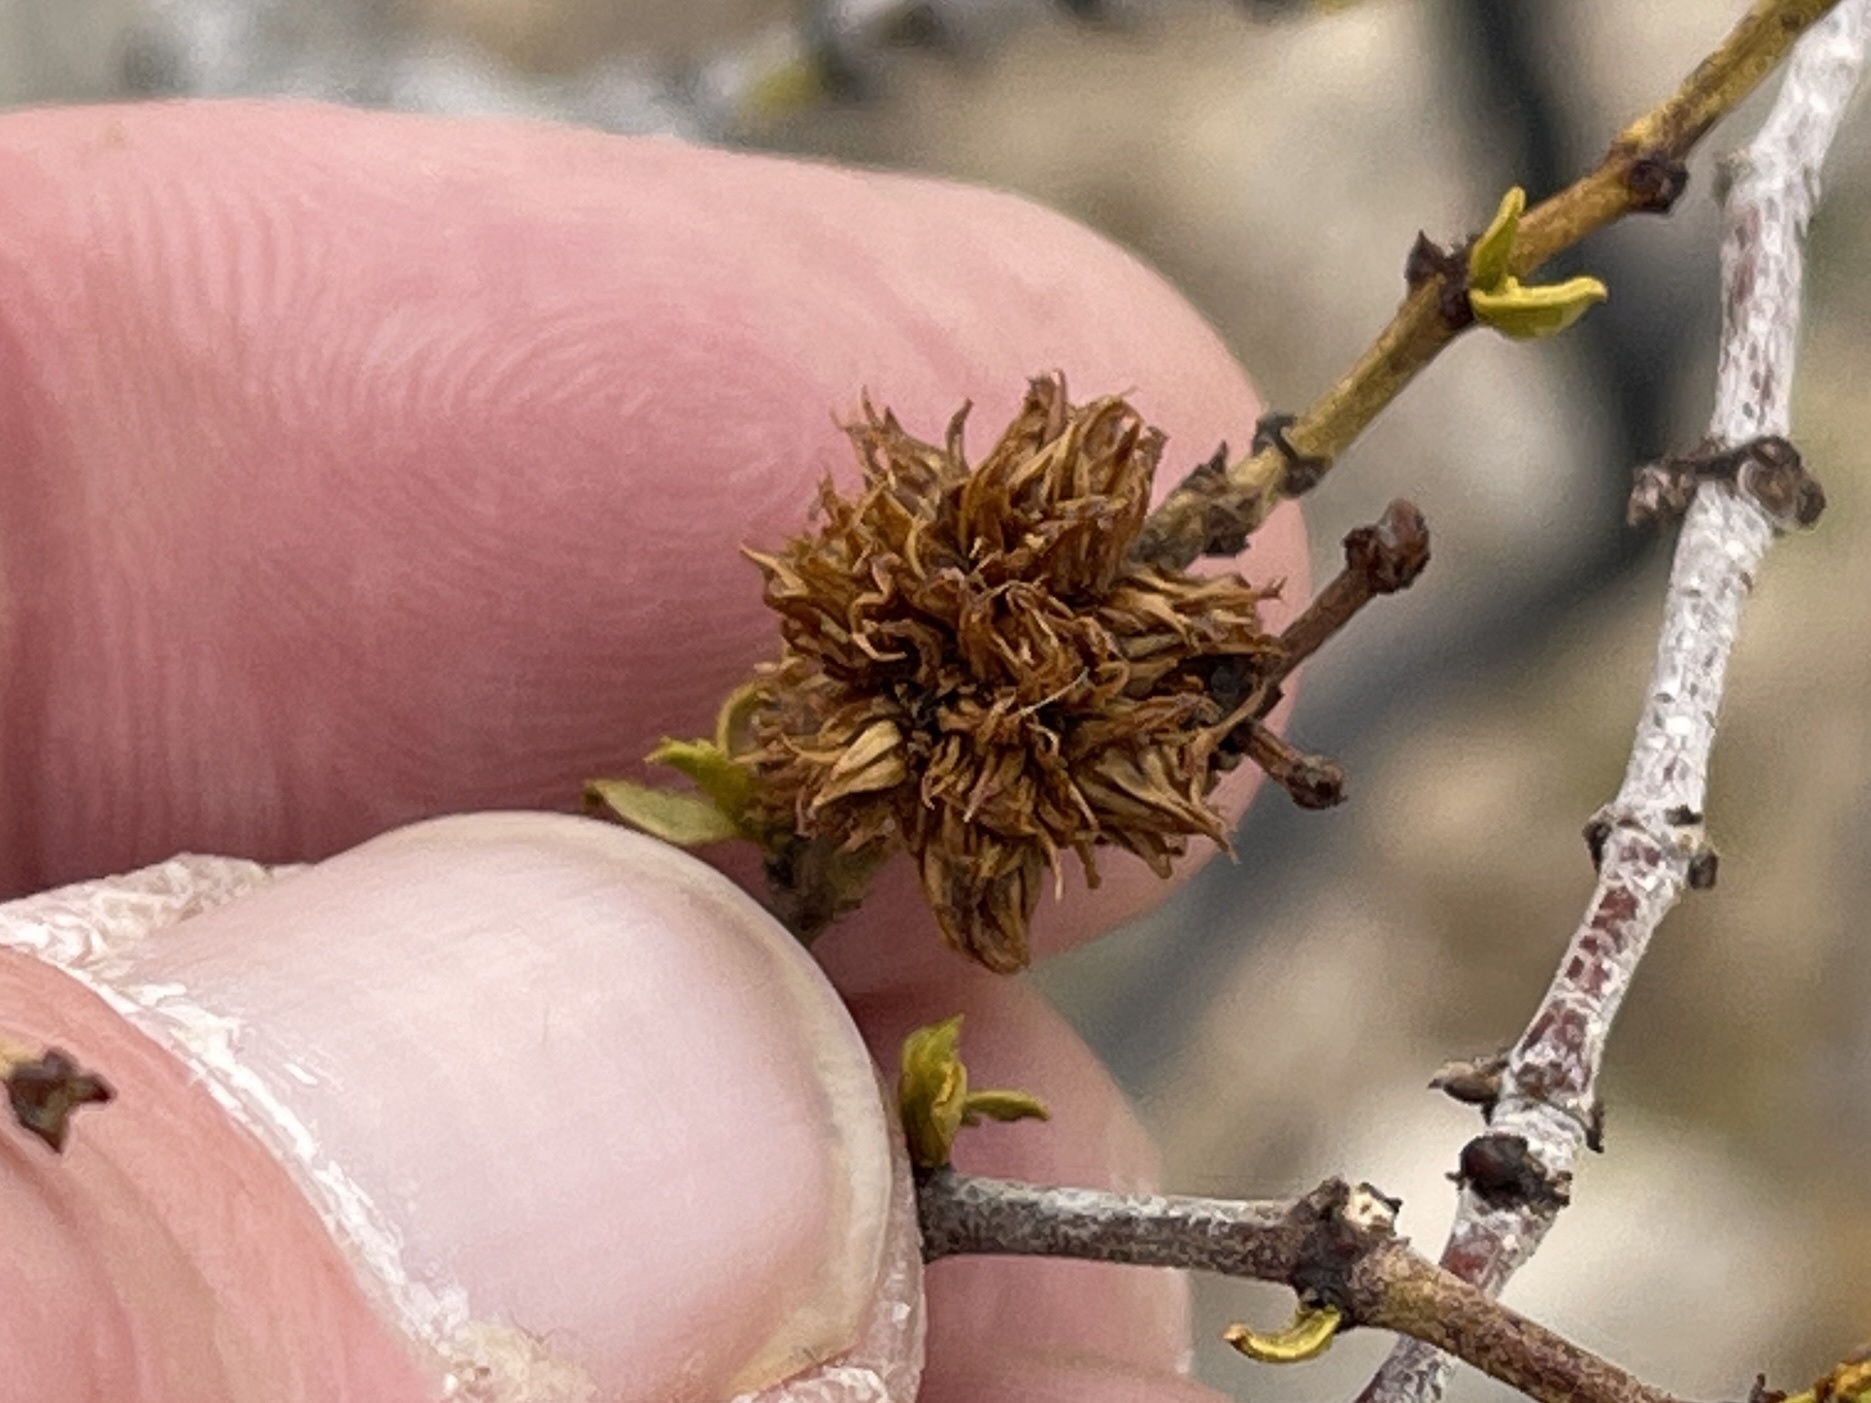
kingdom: Animalia
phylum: Arthropoda
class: Insecta
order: Diptera
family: Cecidomyiidae
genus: Asphondylia
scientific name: Asphondylia auripila
